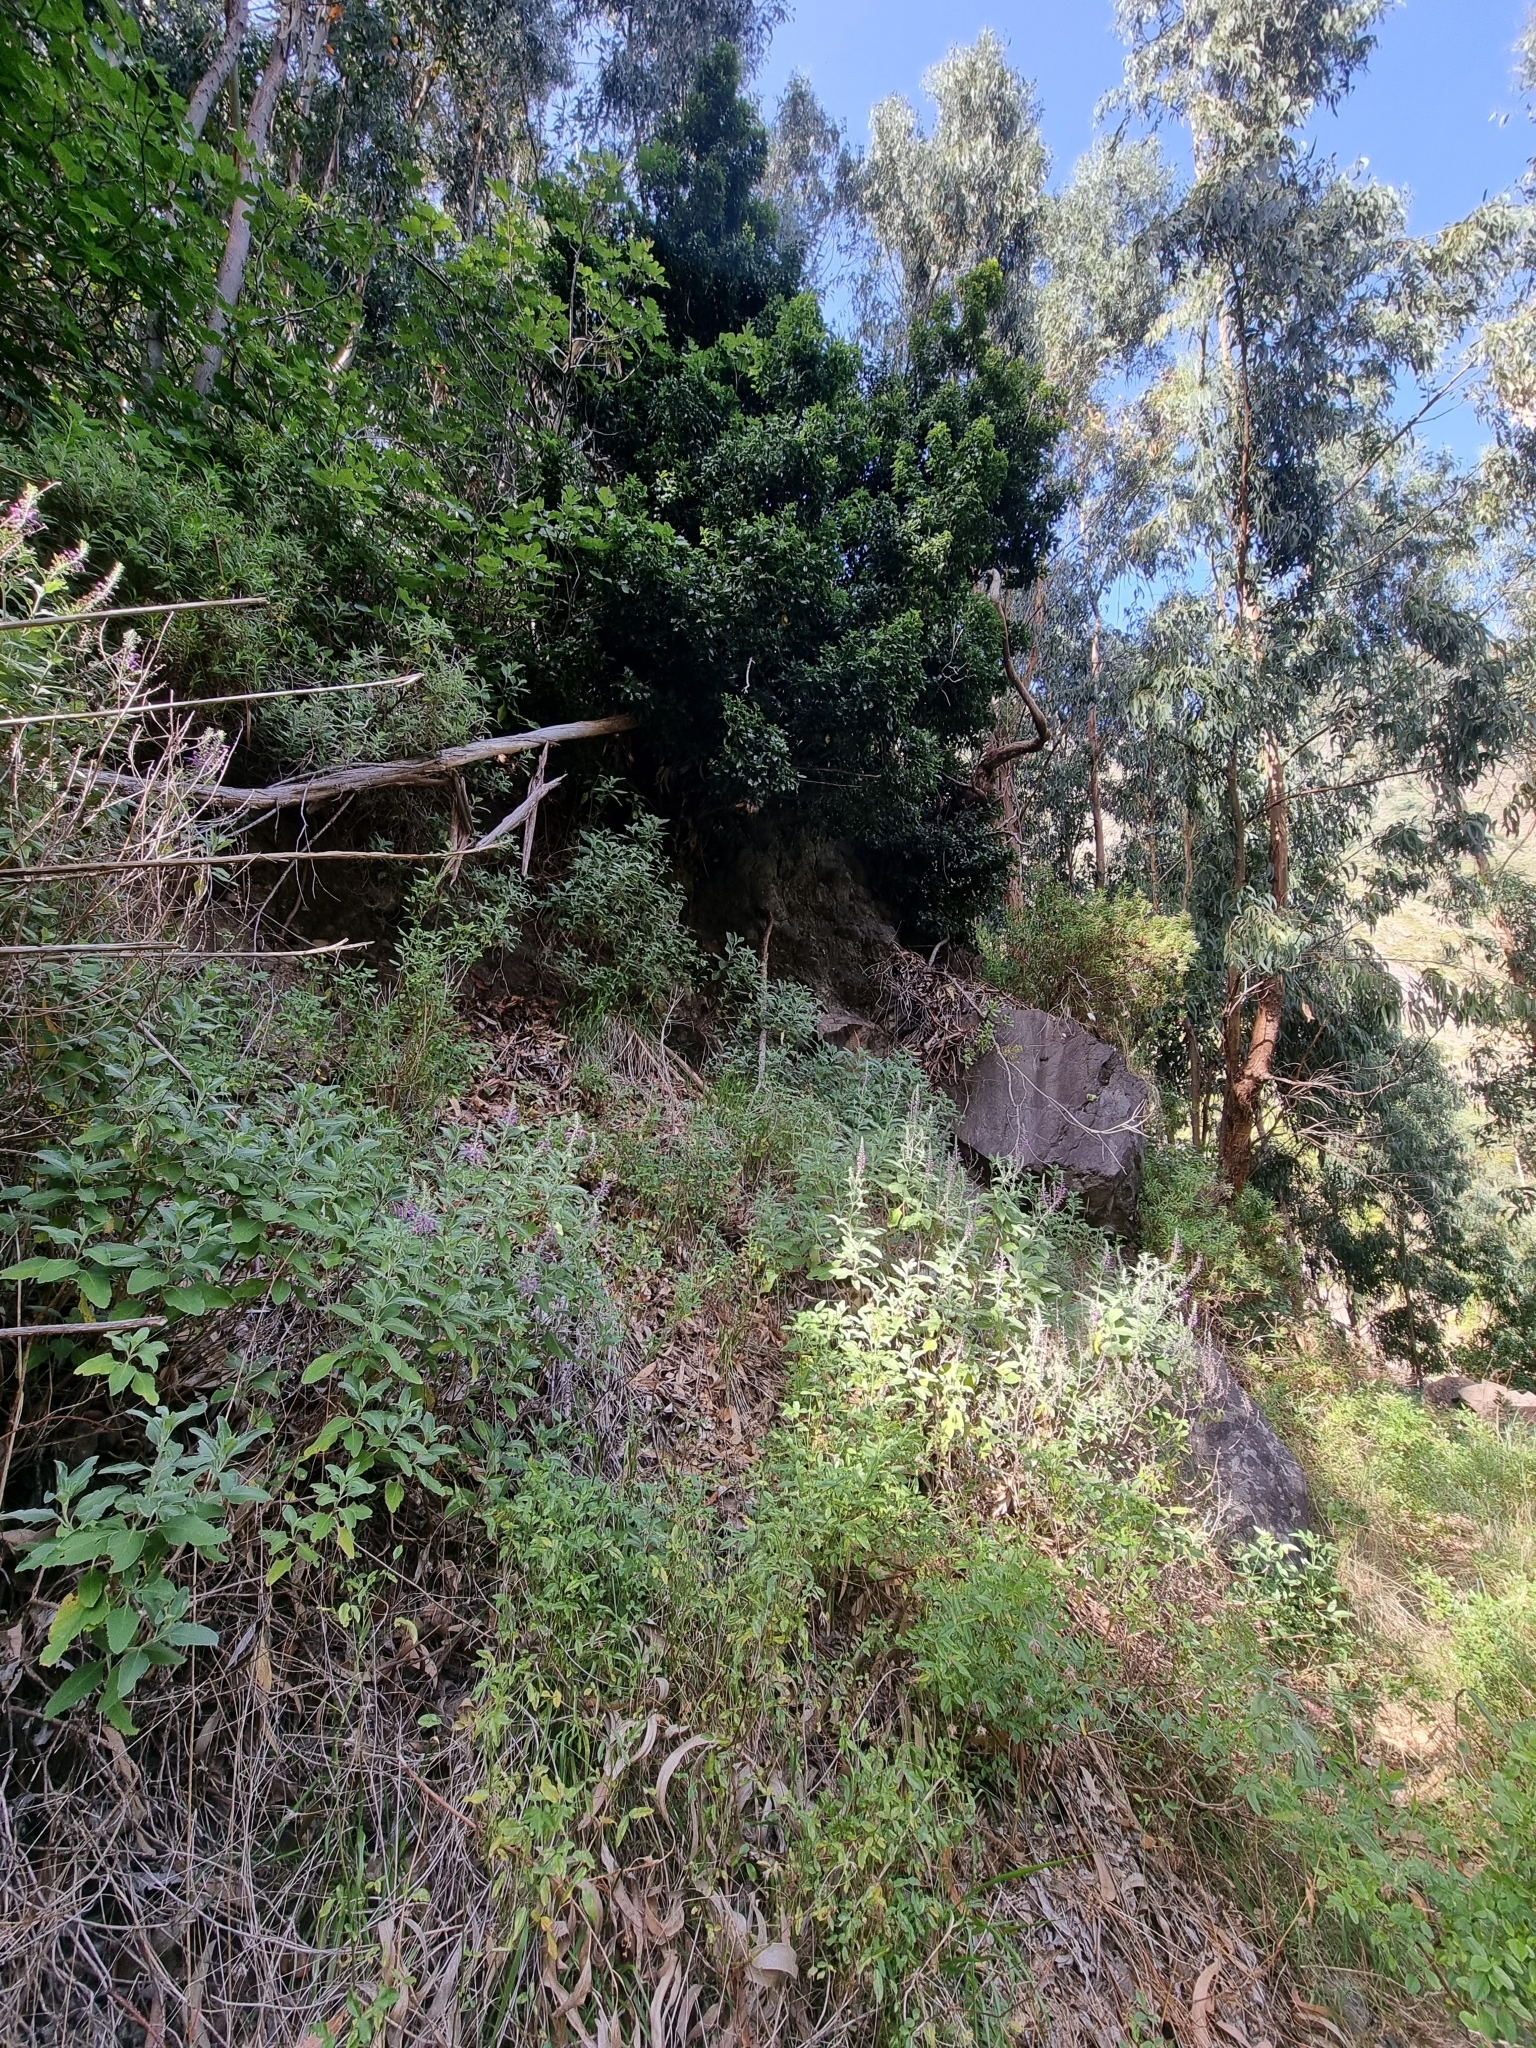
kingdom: Plantae
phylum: Tracheophyta
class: Magnoliopsida
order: Lamiales
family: Lamiaceae
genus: Teucrium
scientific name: Teucrium betonicum
